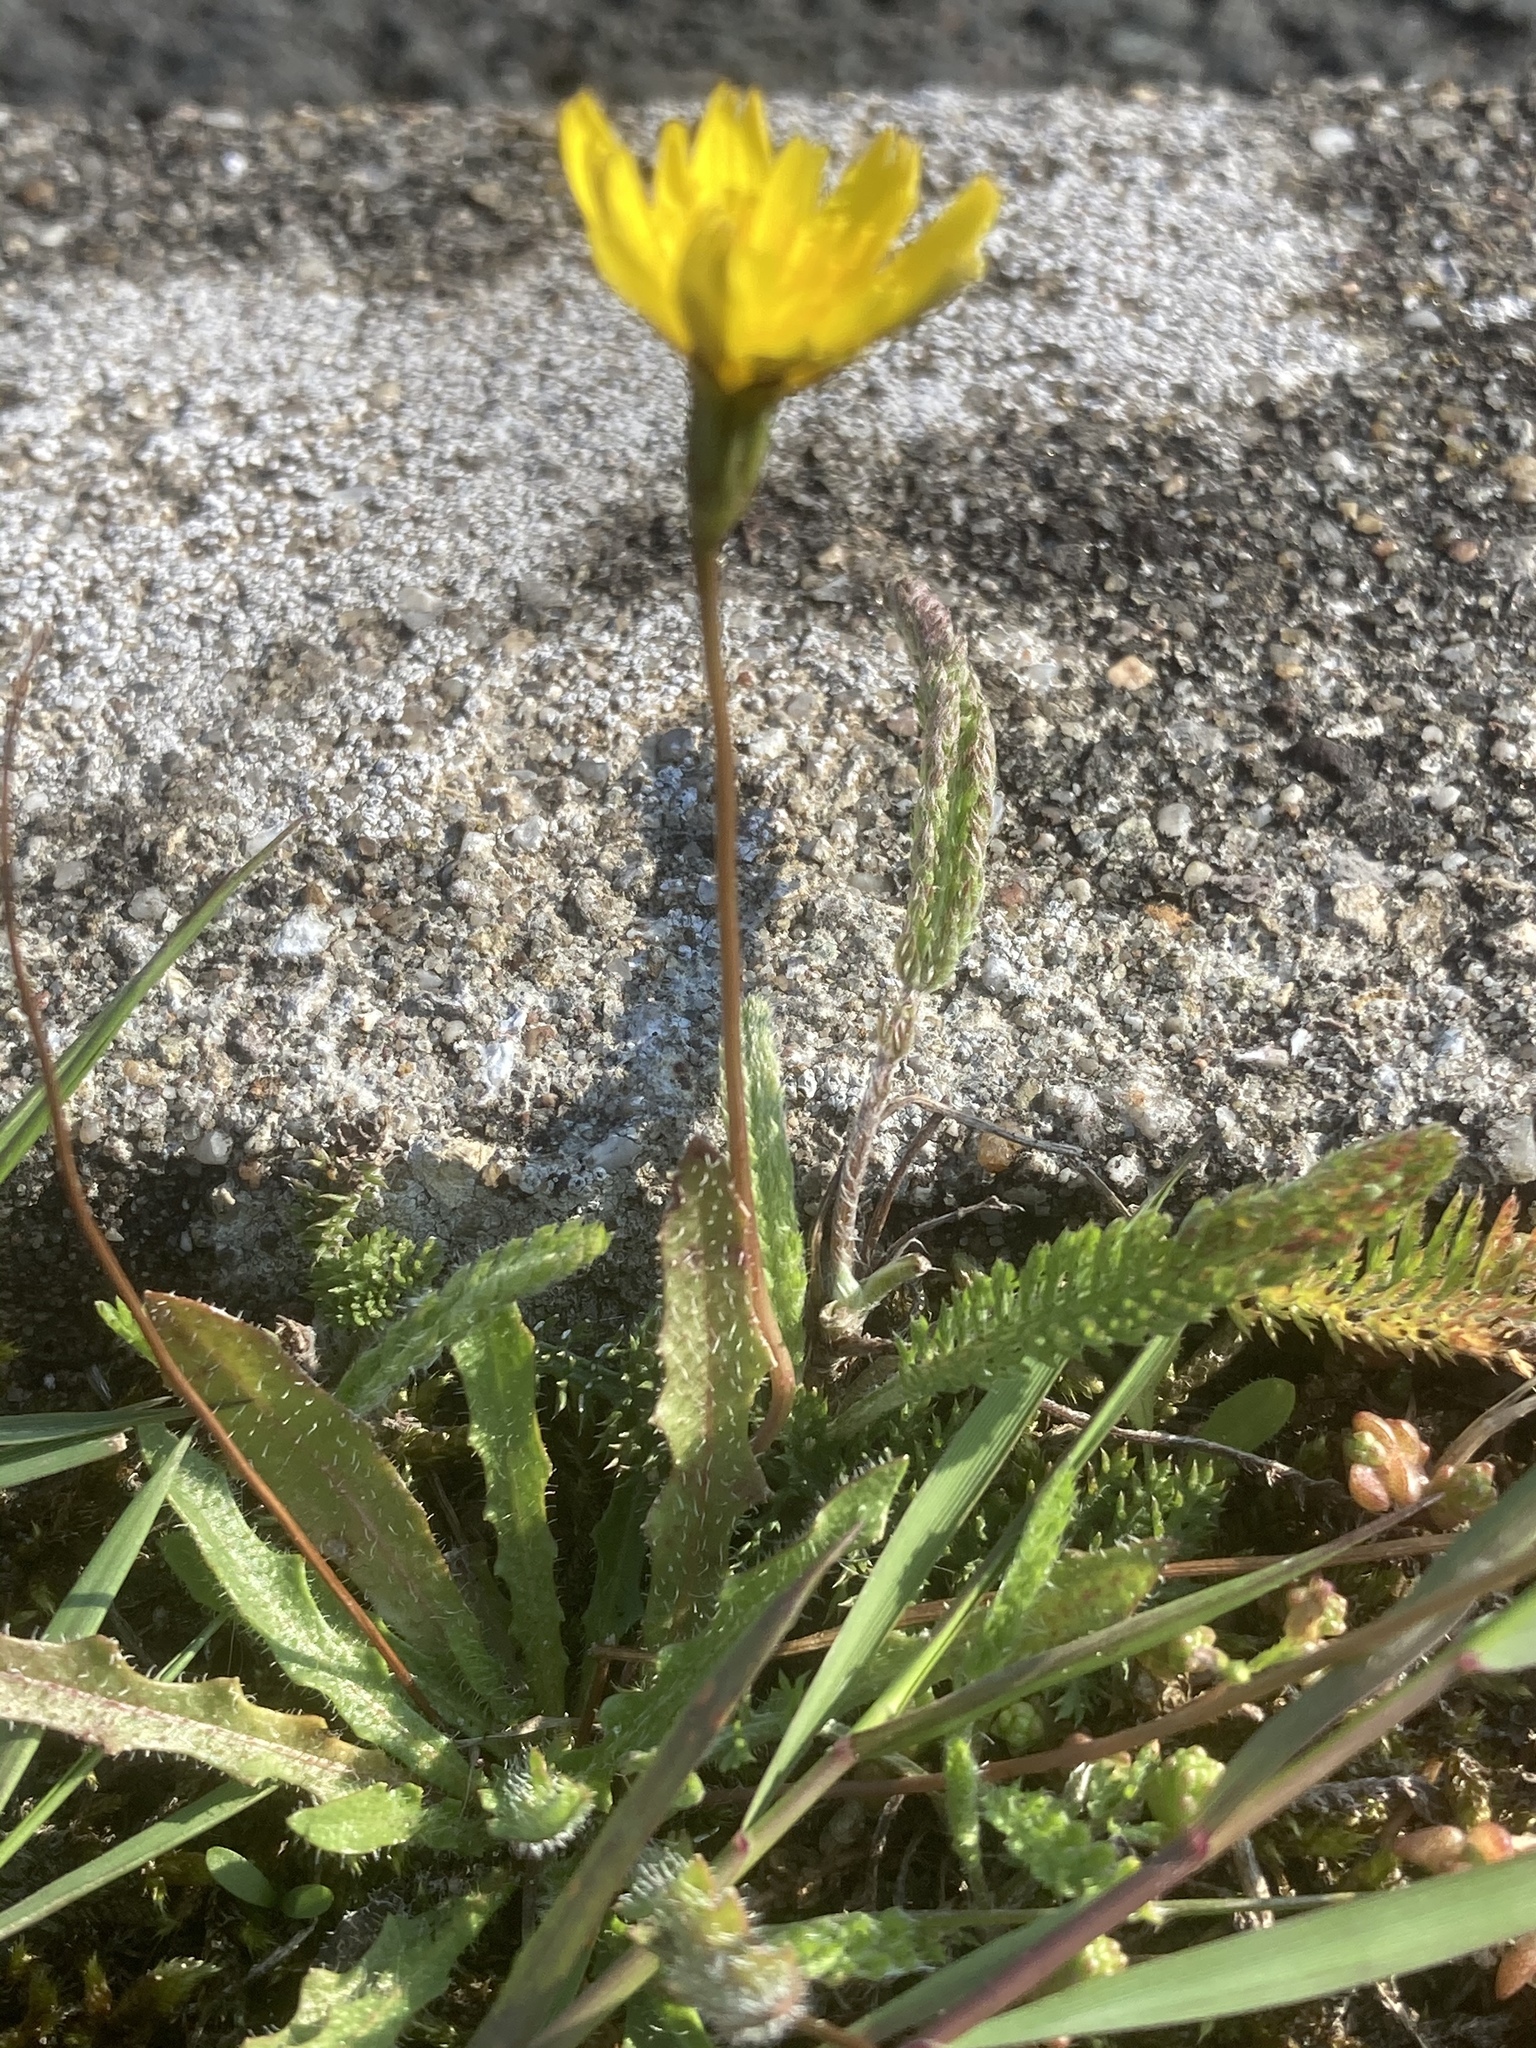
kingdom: Plantae
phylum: Tracheophyta
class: Magnoliopsida
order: Asterales
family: Asteraceae
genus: Thrincia
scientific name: Thrincia saxatilis
